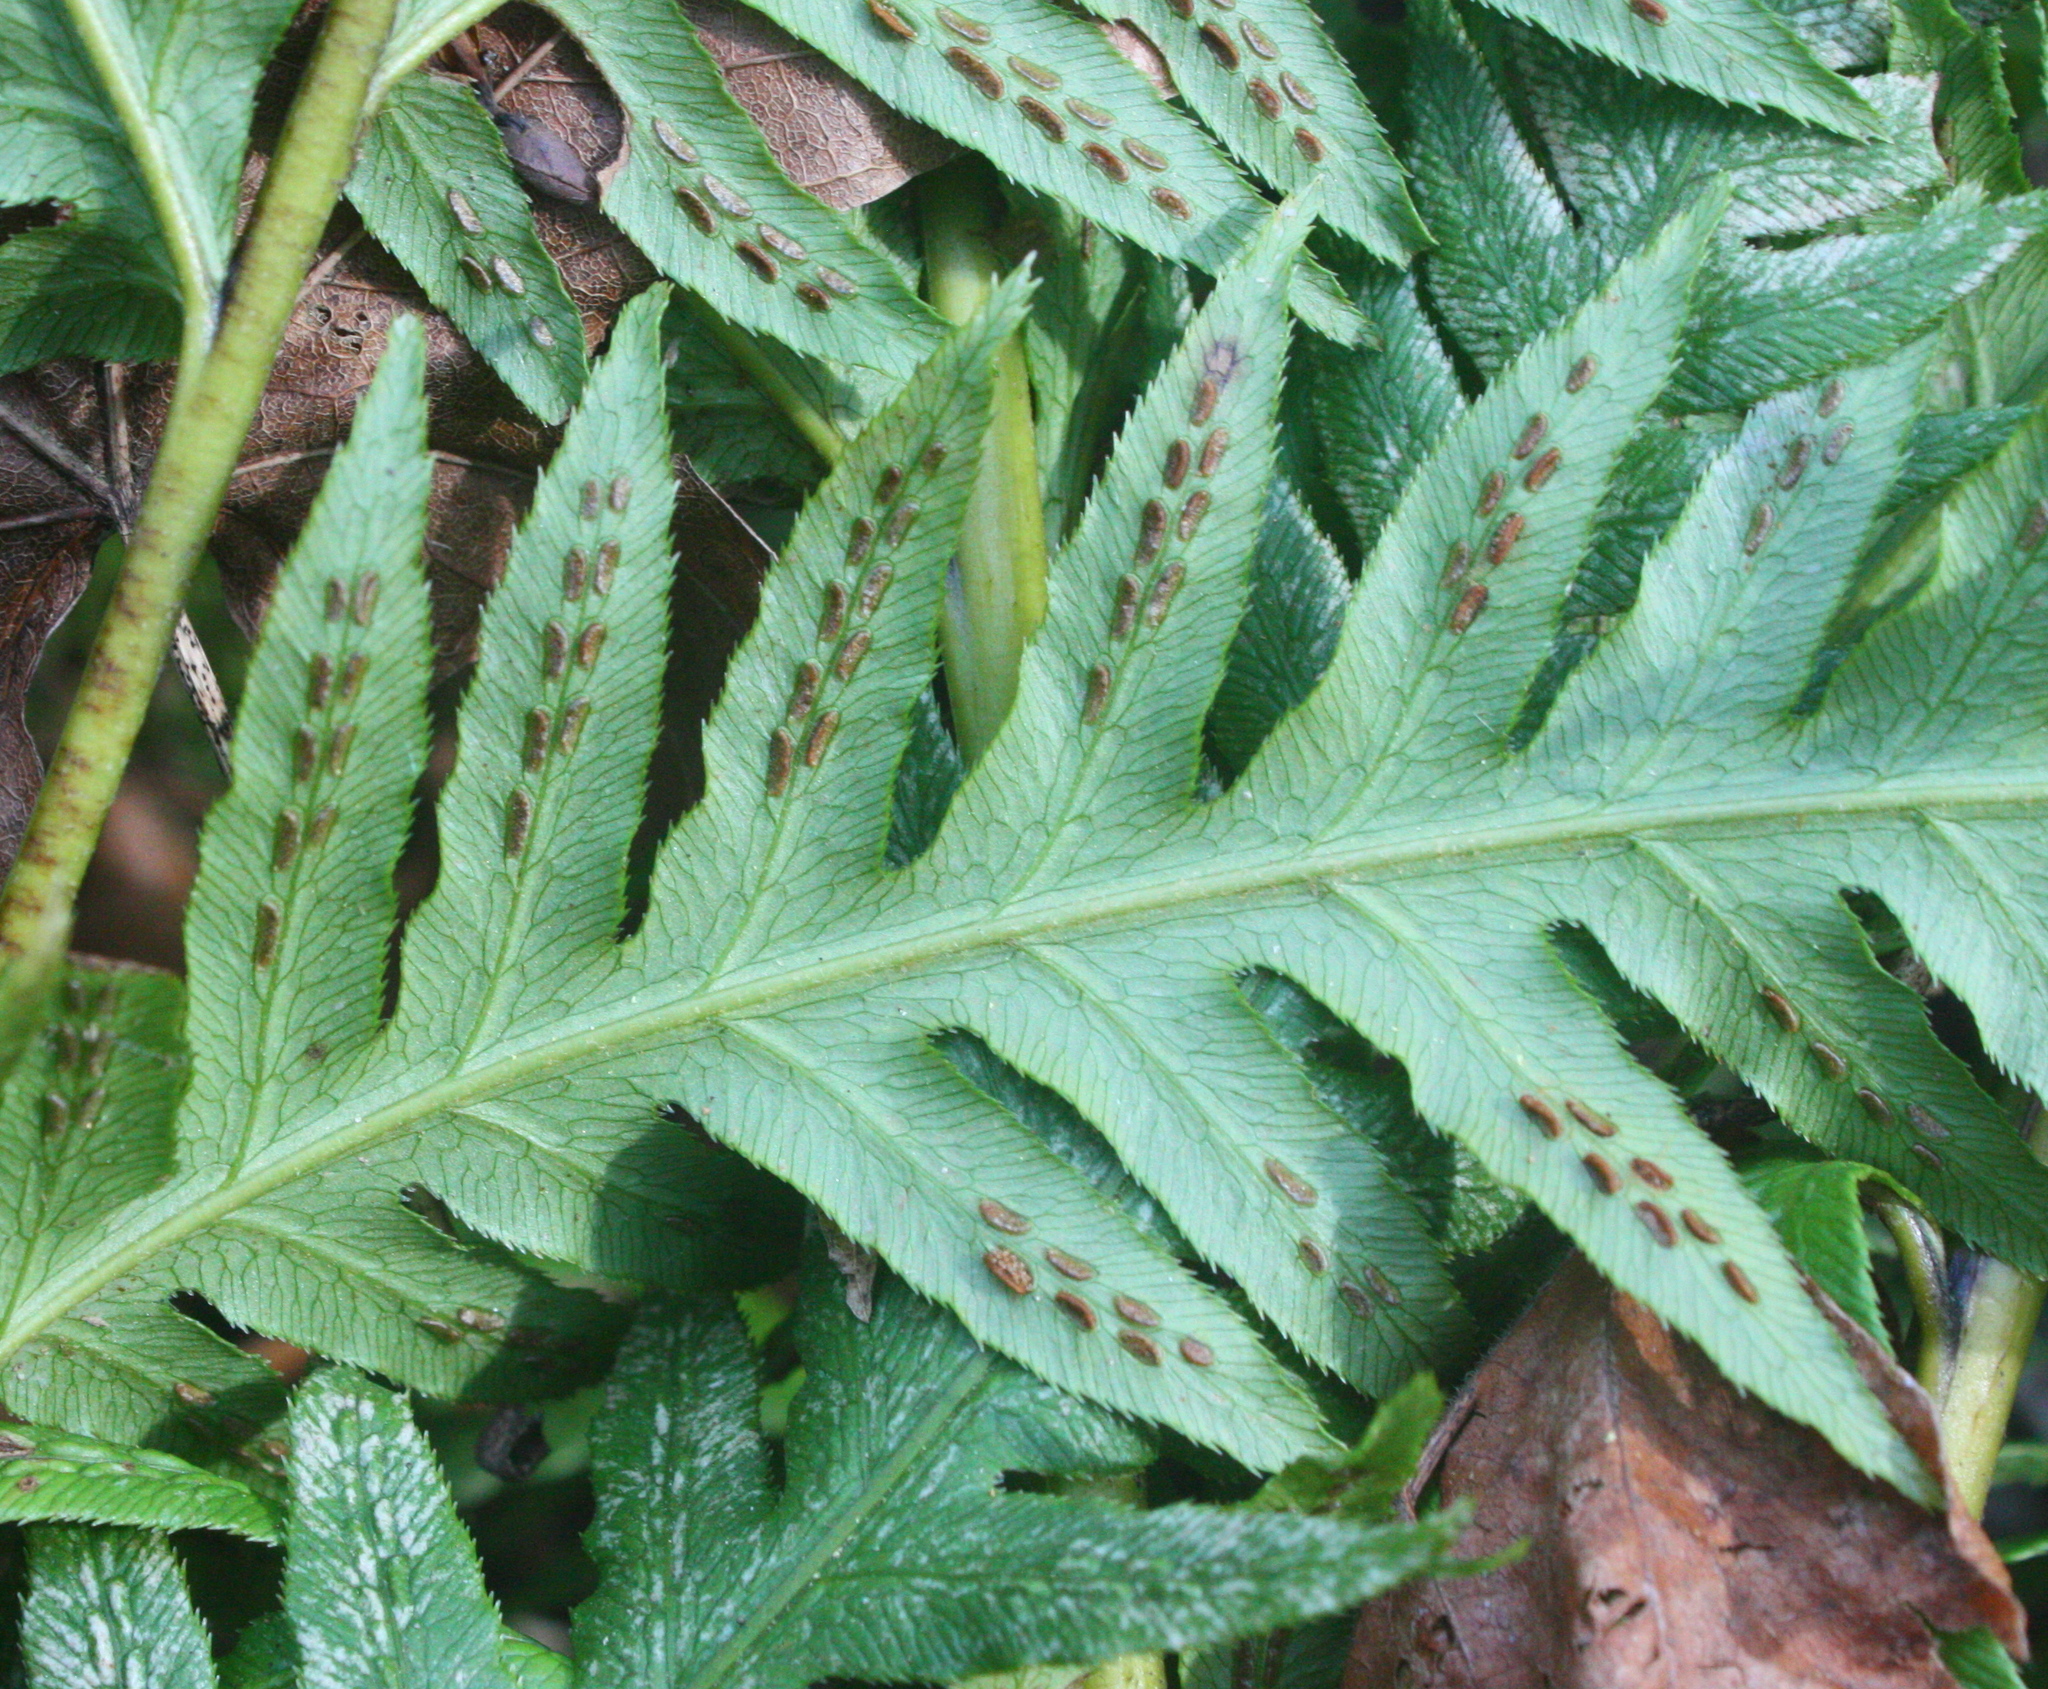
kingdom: Plantae
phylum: Tracheophyta
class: Polypodiopsida
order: Polypodiales
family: Blechnaceae
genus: Woodwardia
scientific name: Woodwardia fimbriata
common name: Giant chain fern
